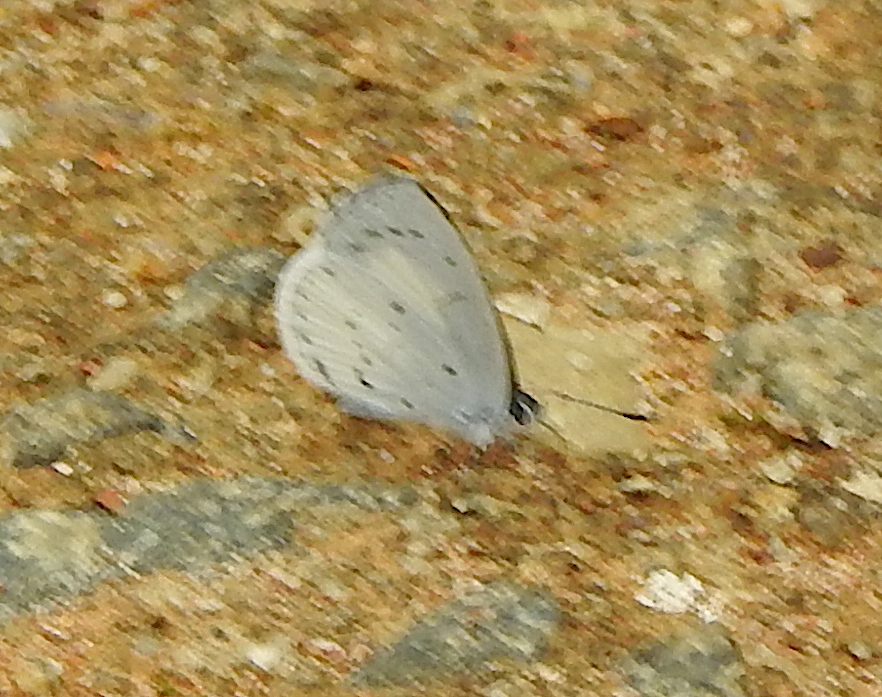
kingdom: Animalia
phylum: Arthropoda
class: Insecta
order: Lepidoptera
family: Lycaenidae
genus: Udara
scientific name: Udara akasa
